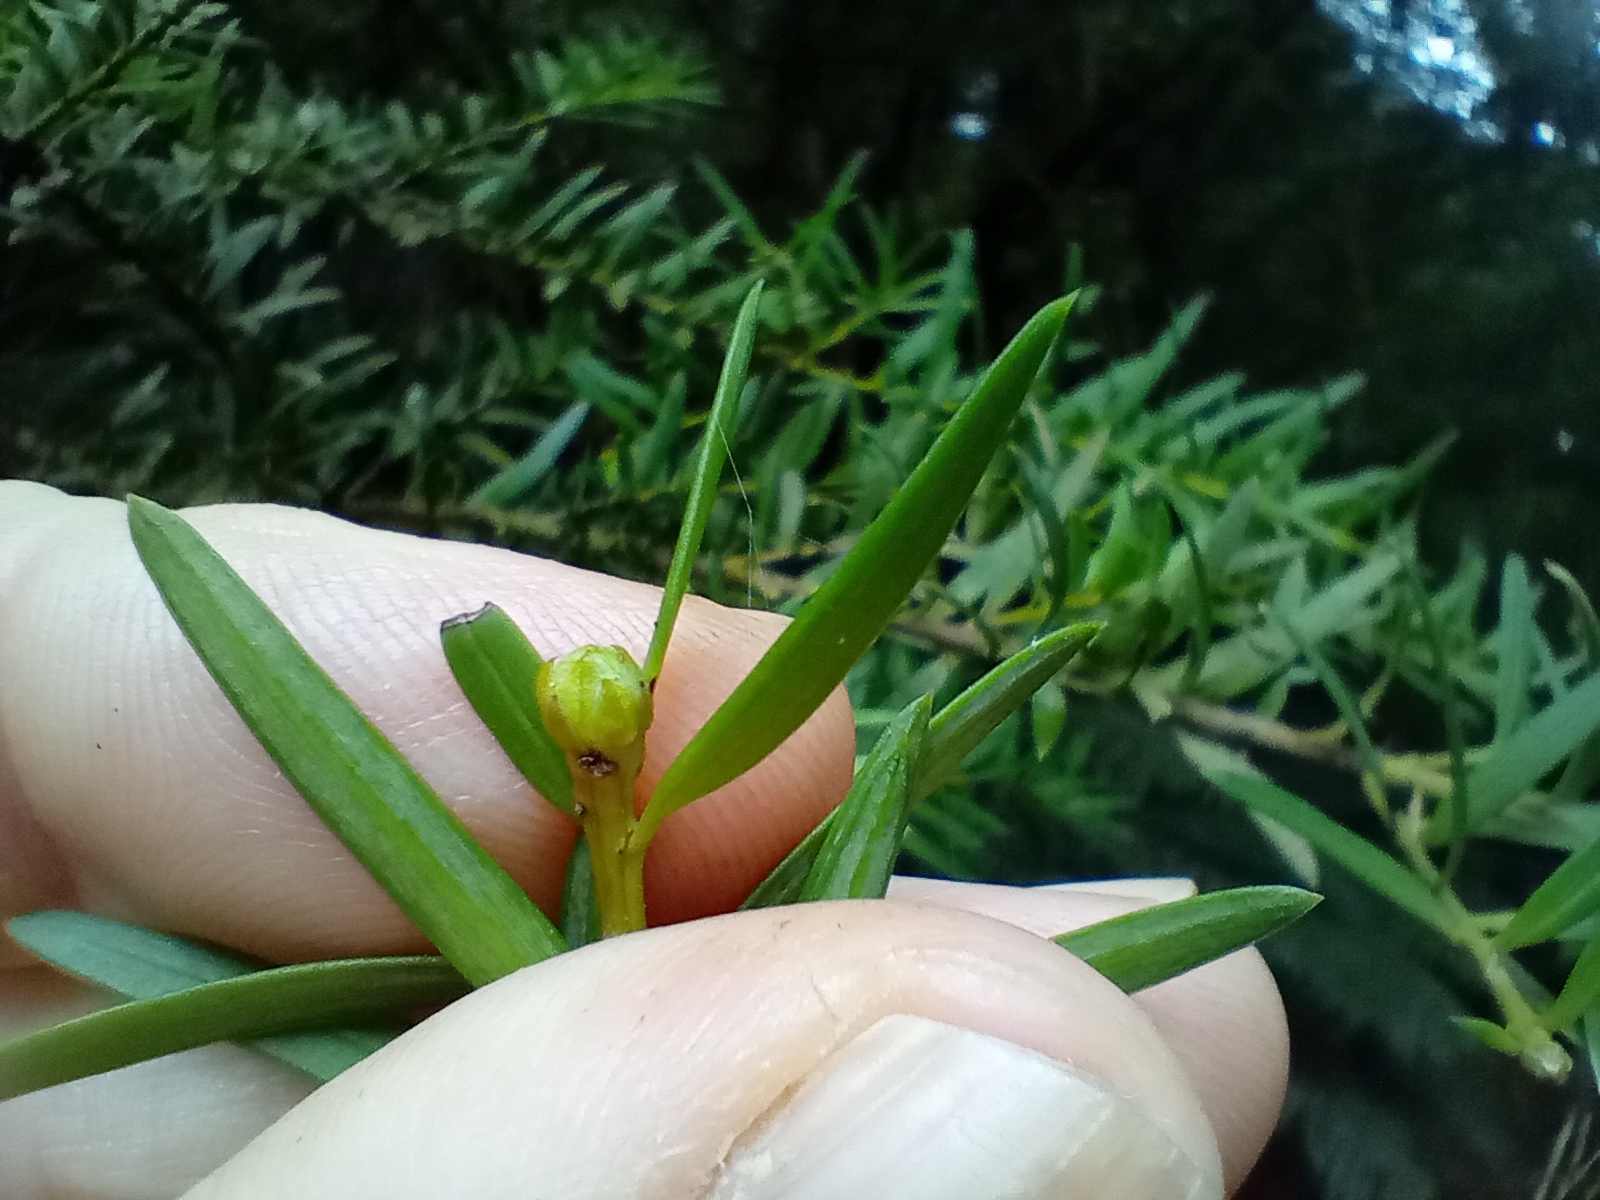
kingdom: Plantae
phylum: Tracheophyta
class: Pinopsida
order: Pinales
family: Podocarpaceae
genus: Podocarpus
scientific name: Podocarpus laetus
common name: Hall's totara
